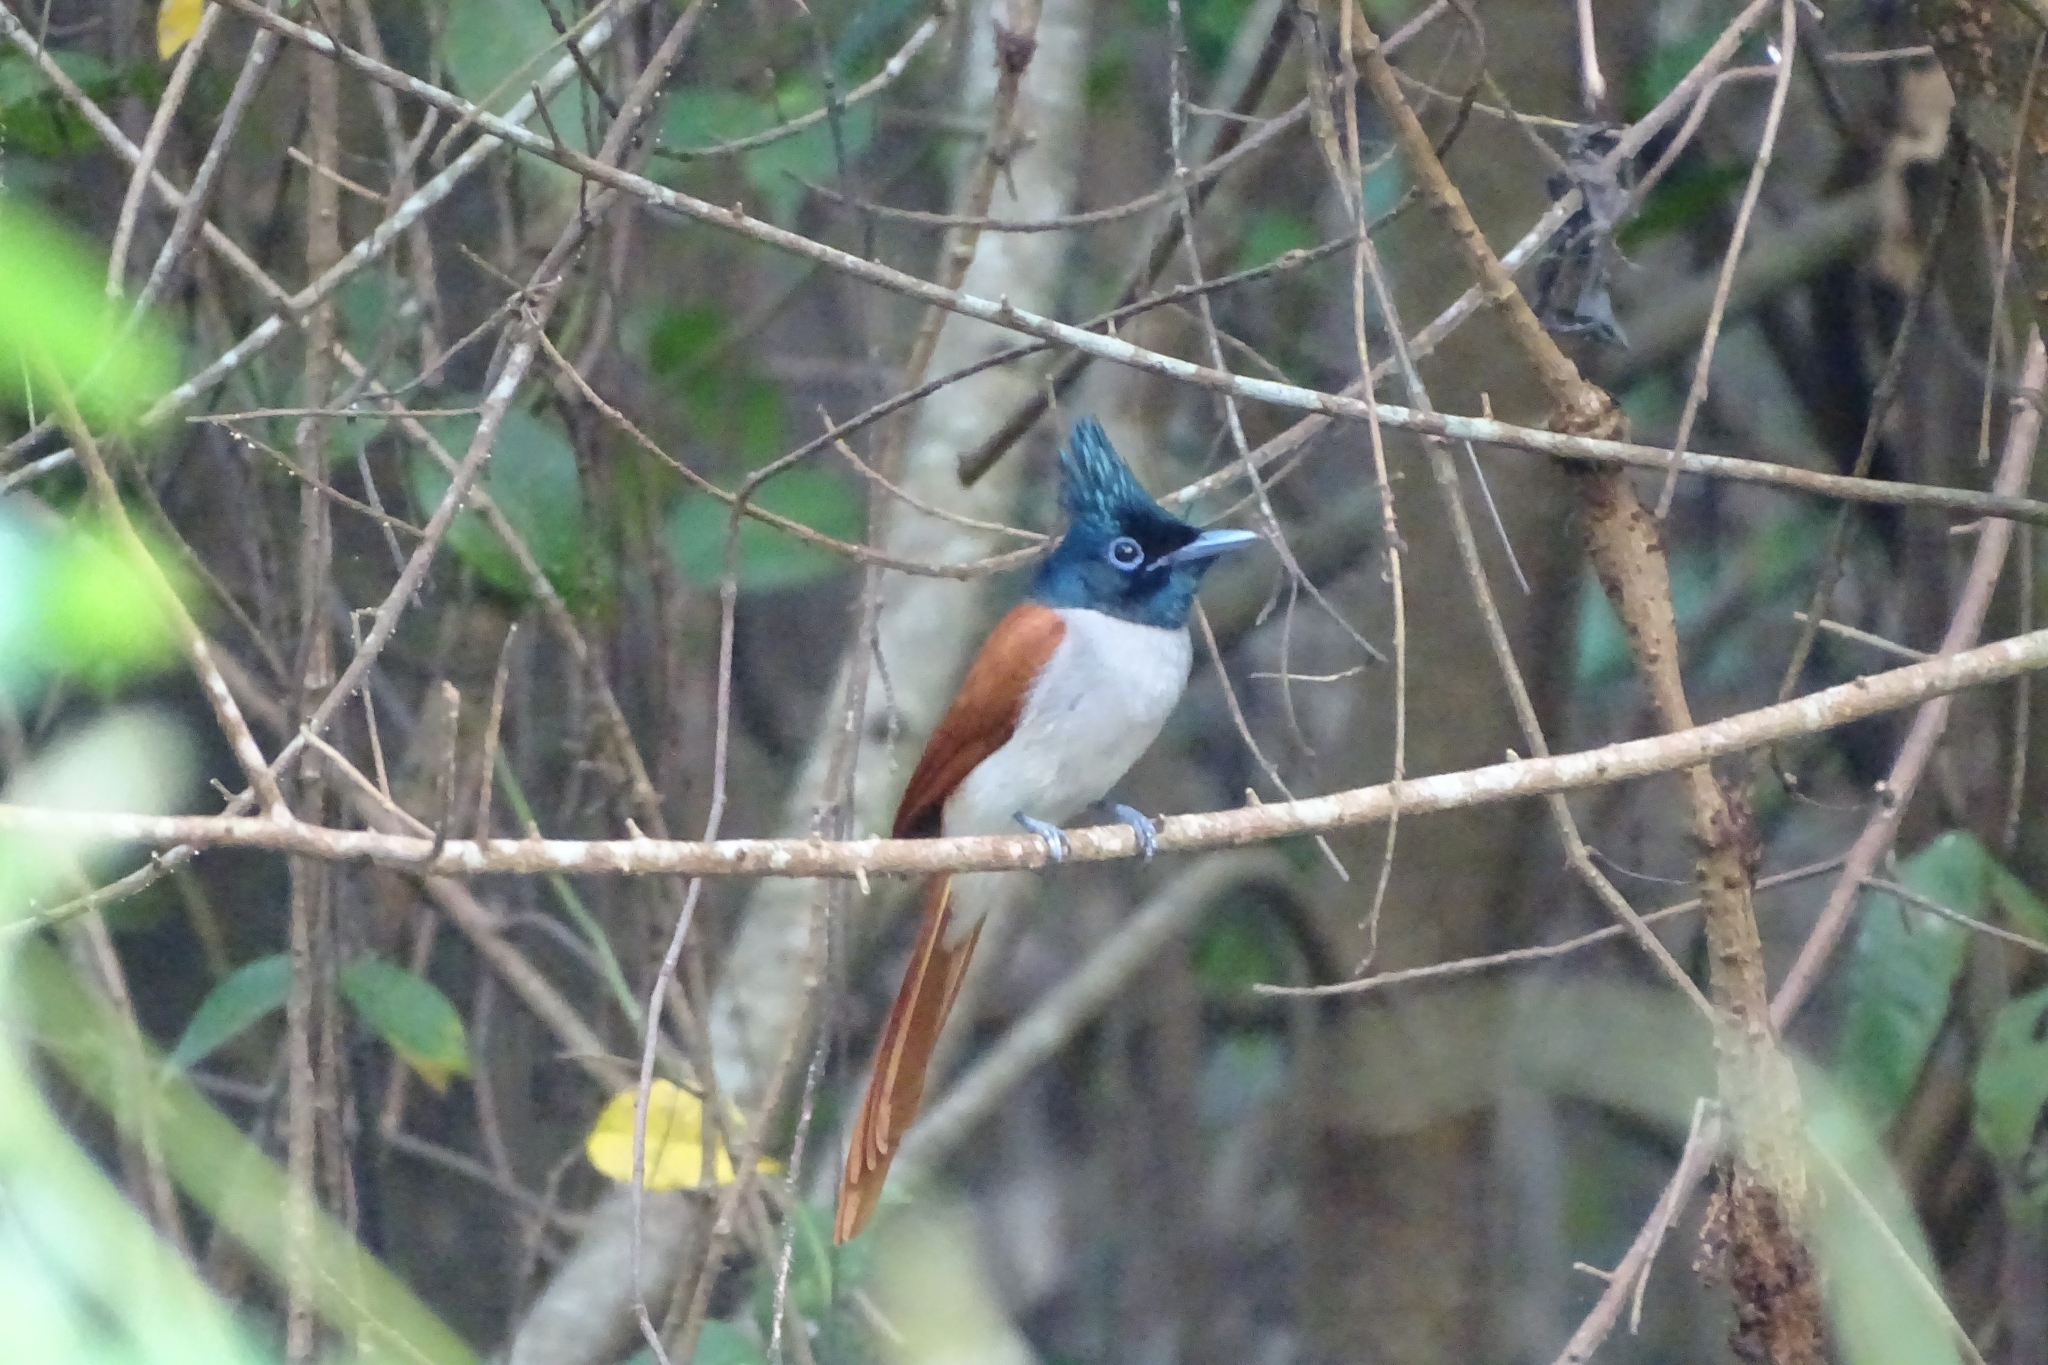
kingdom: Animalia
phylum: Chordata
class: Aves
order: Passeriformes
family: Monarchidae
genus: Terpsiphone
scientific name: Terpsiphone paradisi
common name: Indian paradise flycatcher
